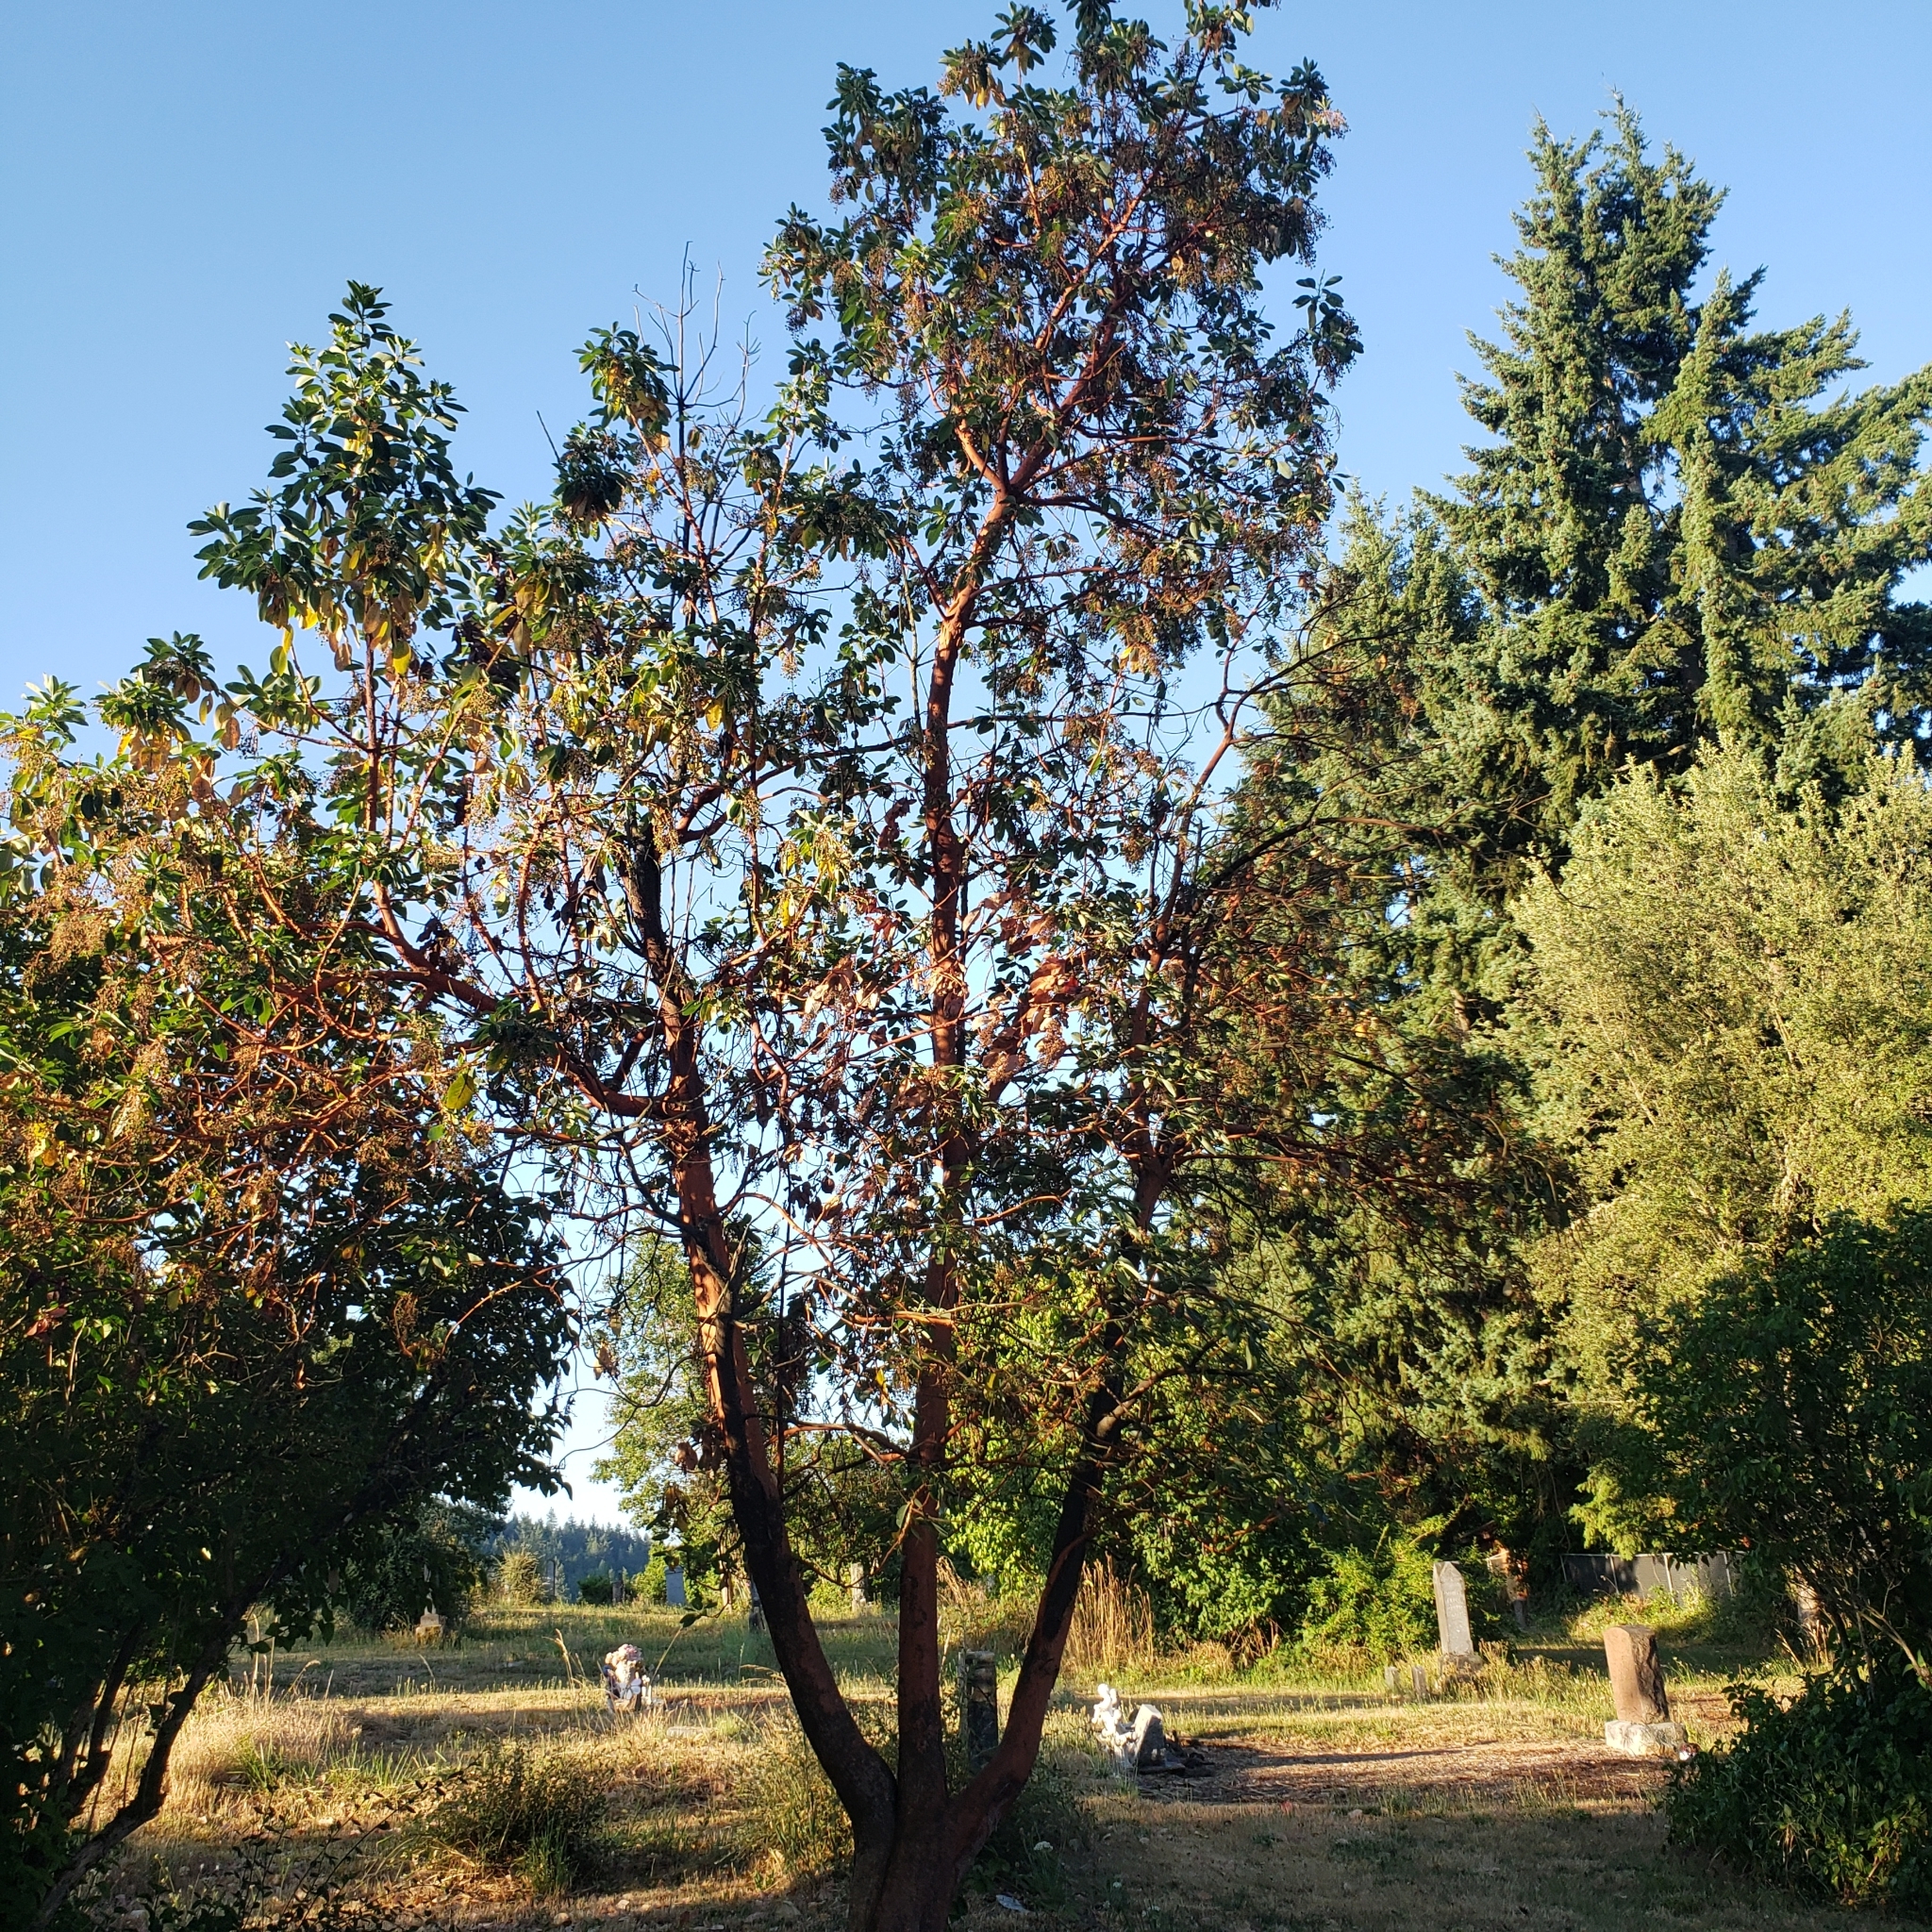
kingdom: Plantae
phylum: Tracheophyta
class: Magnoliopsida
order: Ericales
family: Ericaceae
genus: Arbutus
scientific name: Arbutus menziesii
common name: Pacific madrone
